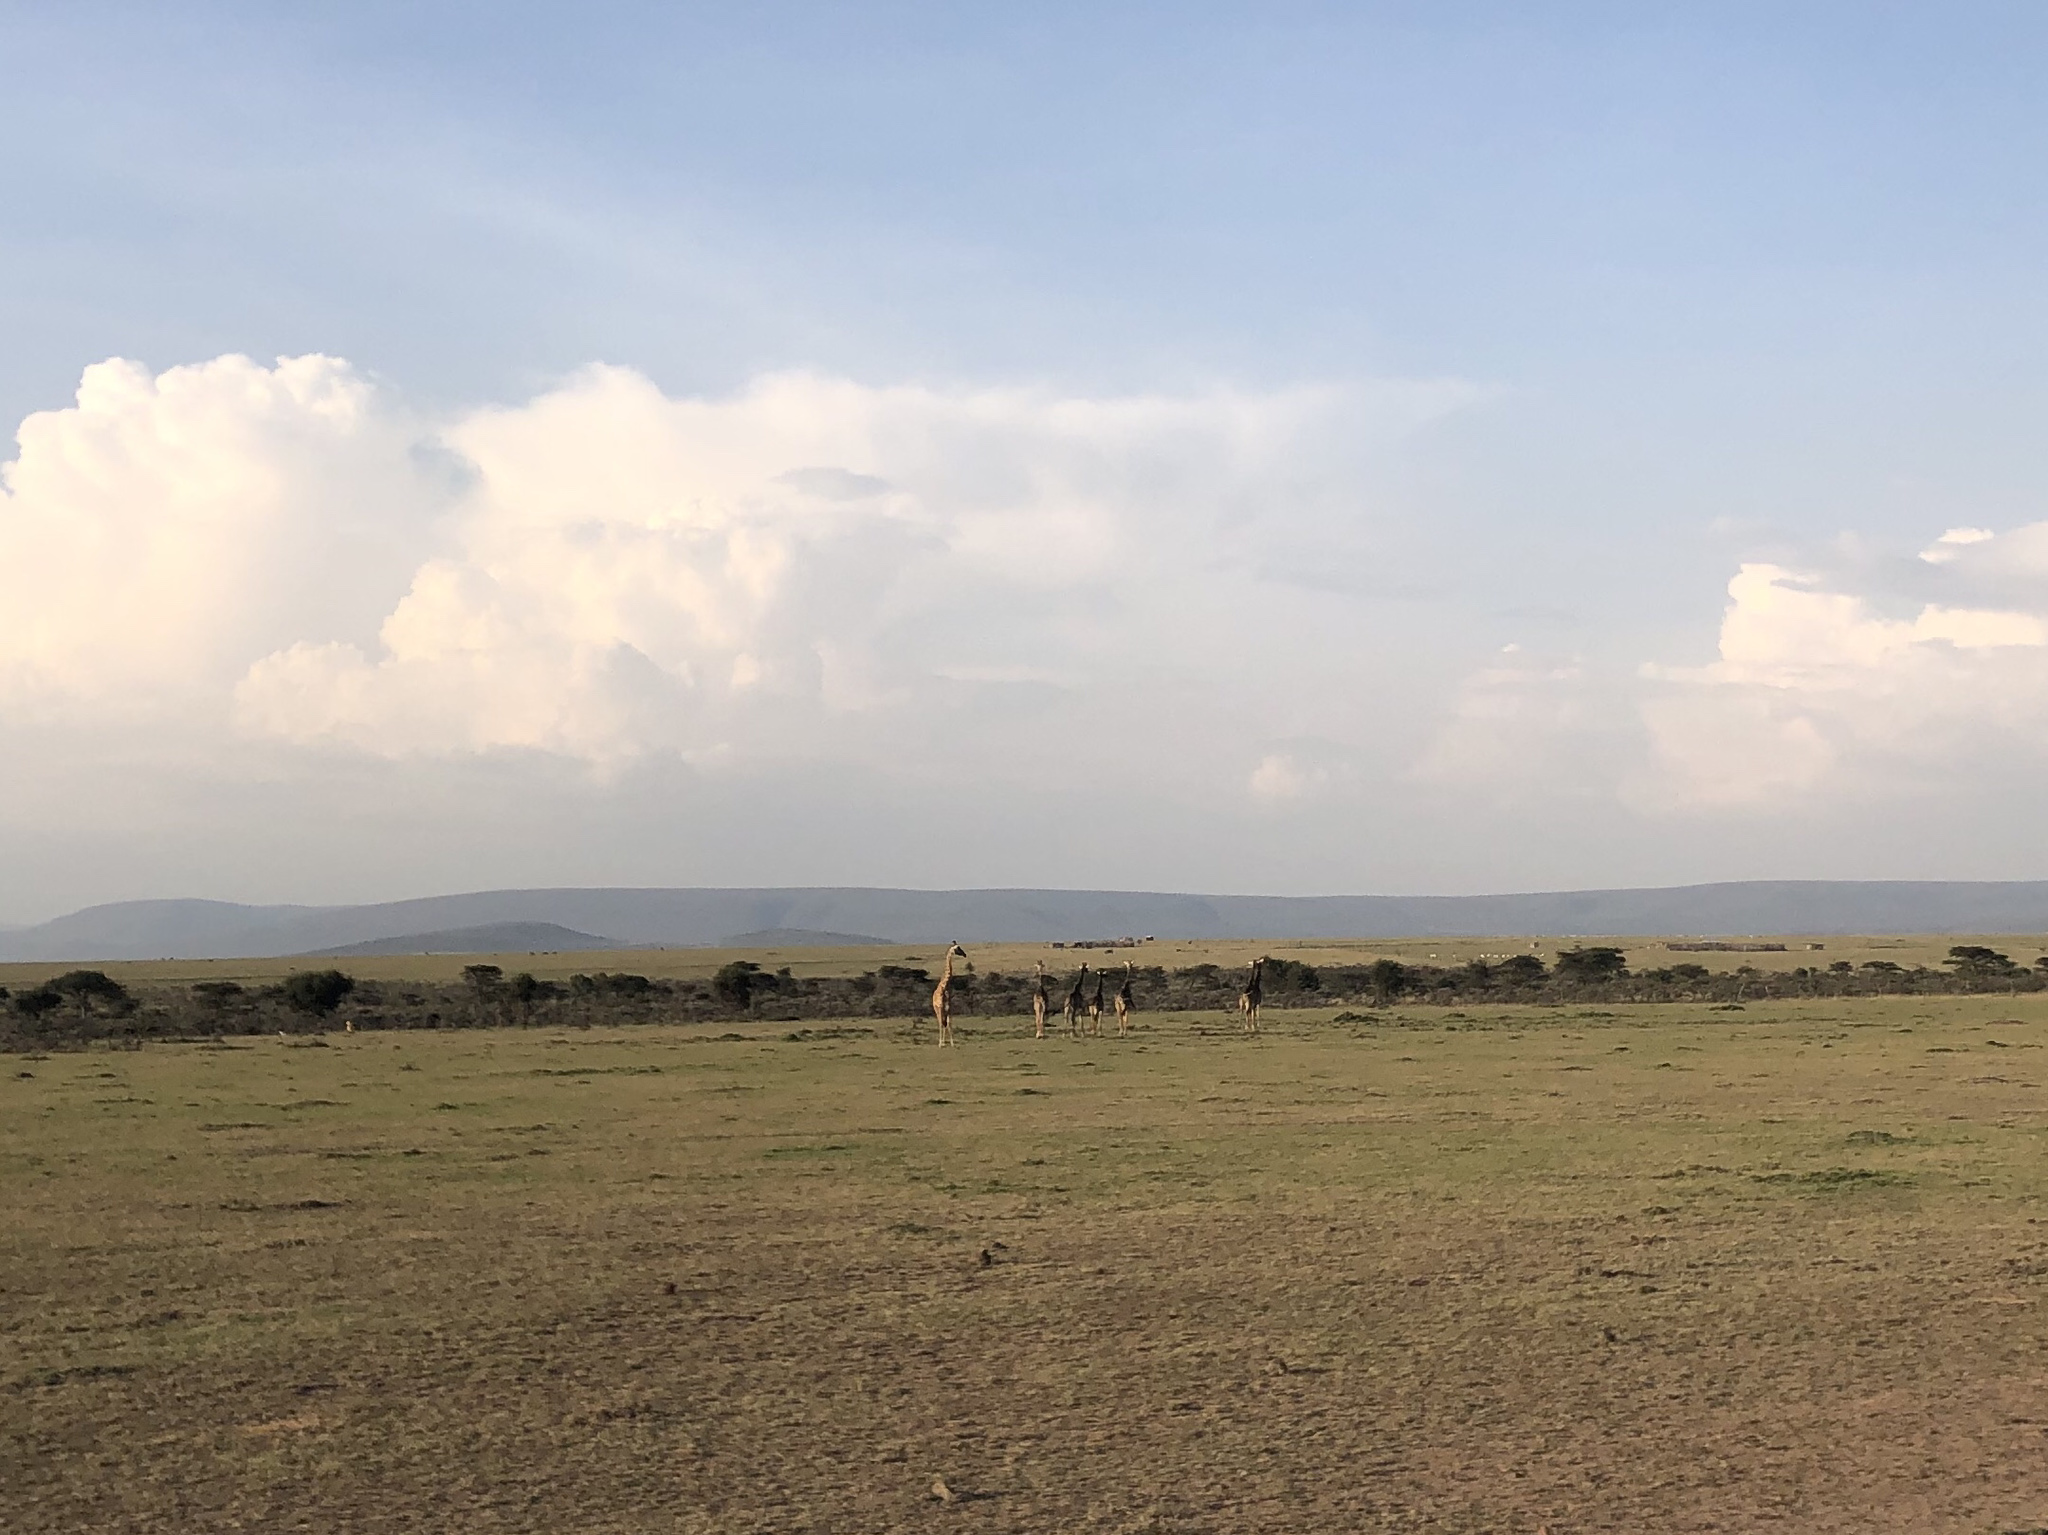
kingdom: Animalia
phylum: Chordata
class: Mammalia
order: Artiodactyla
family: Giraffidae
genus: Giraffa
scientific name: Giraffa tippelskirchi
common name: Masai giraffe
